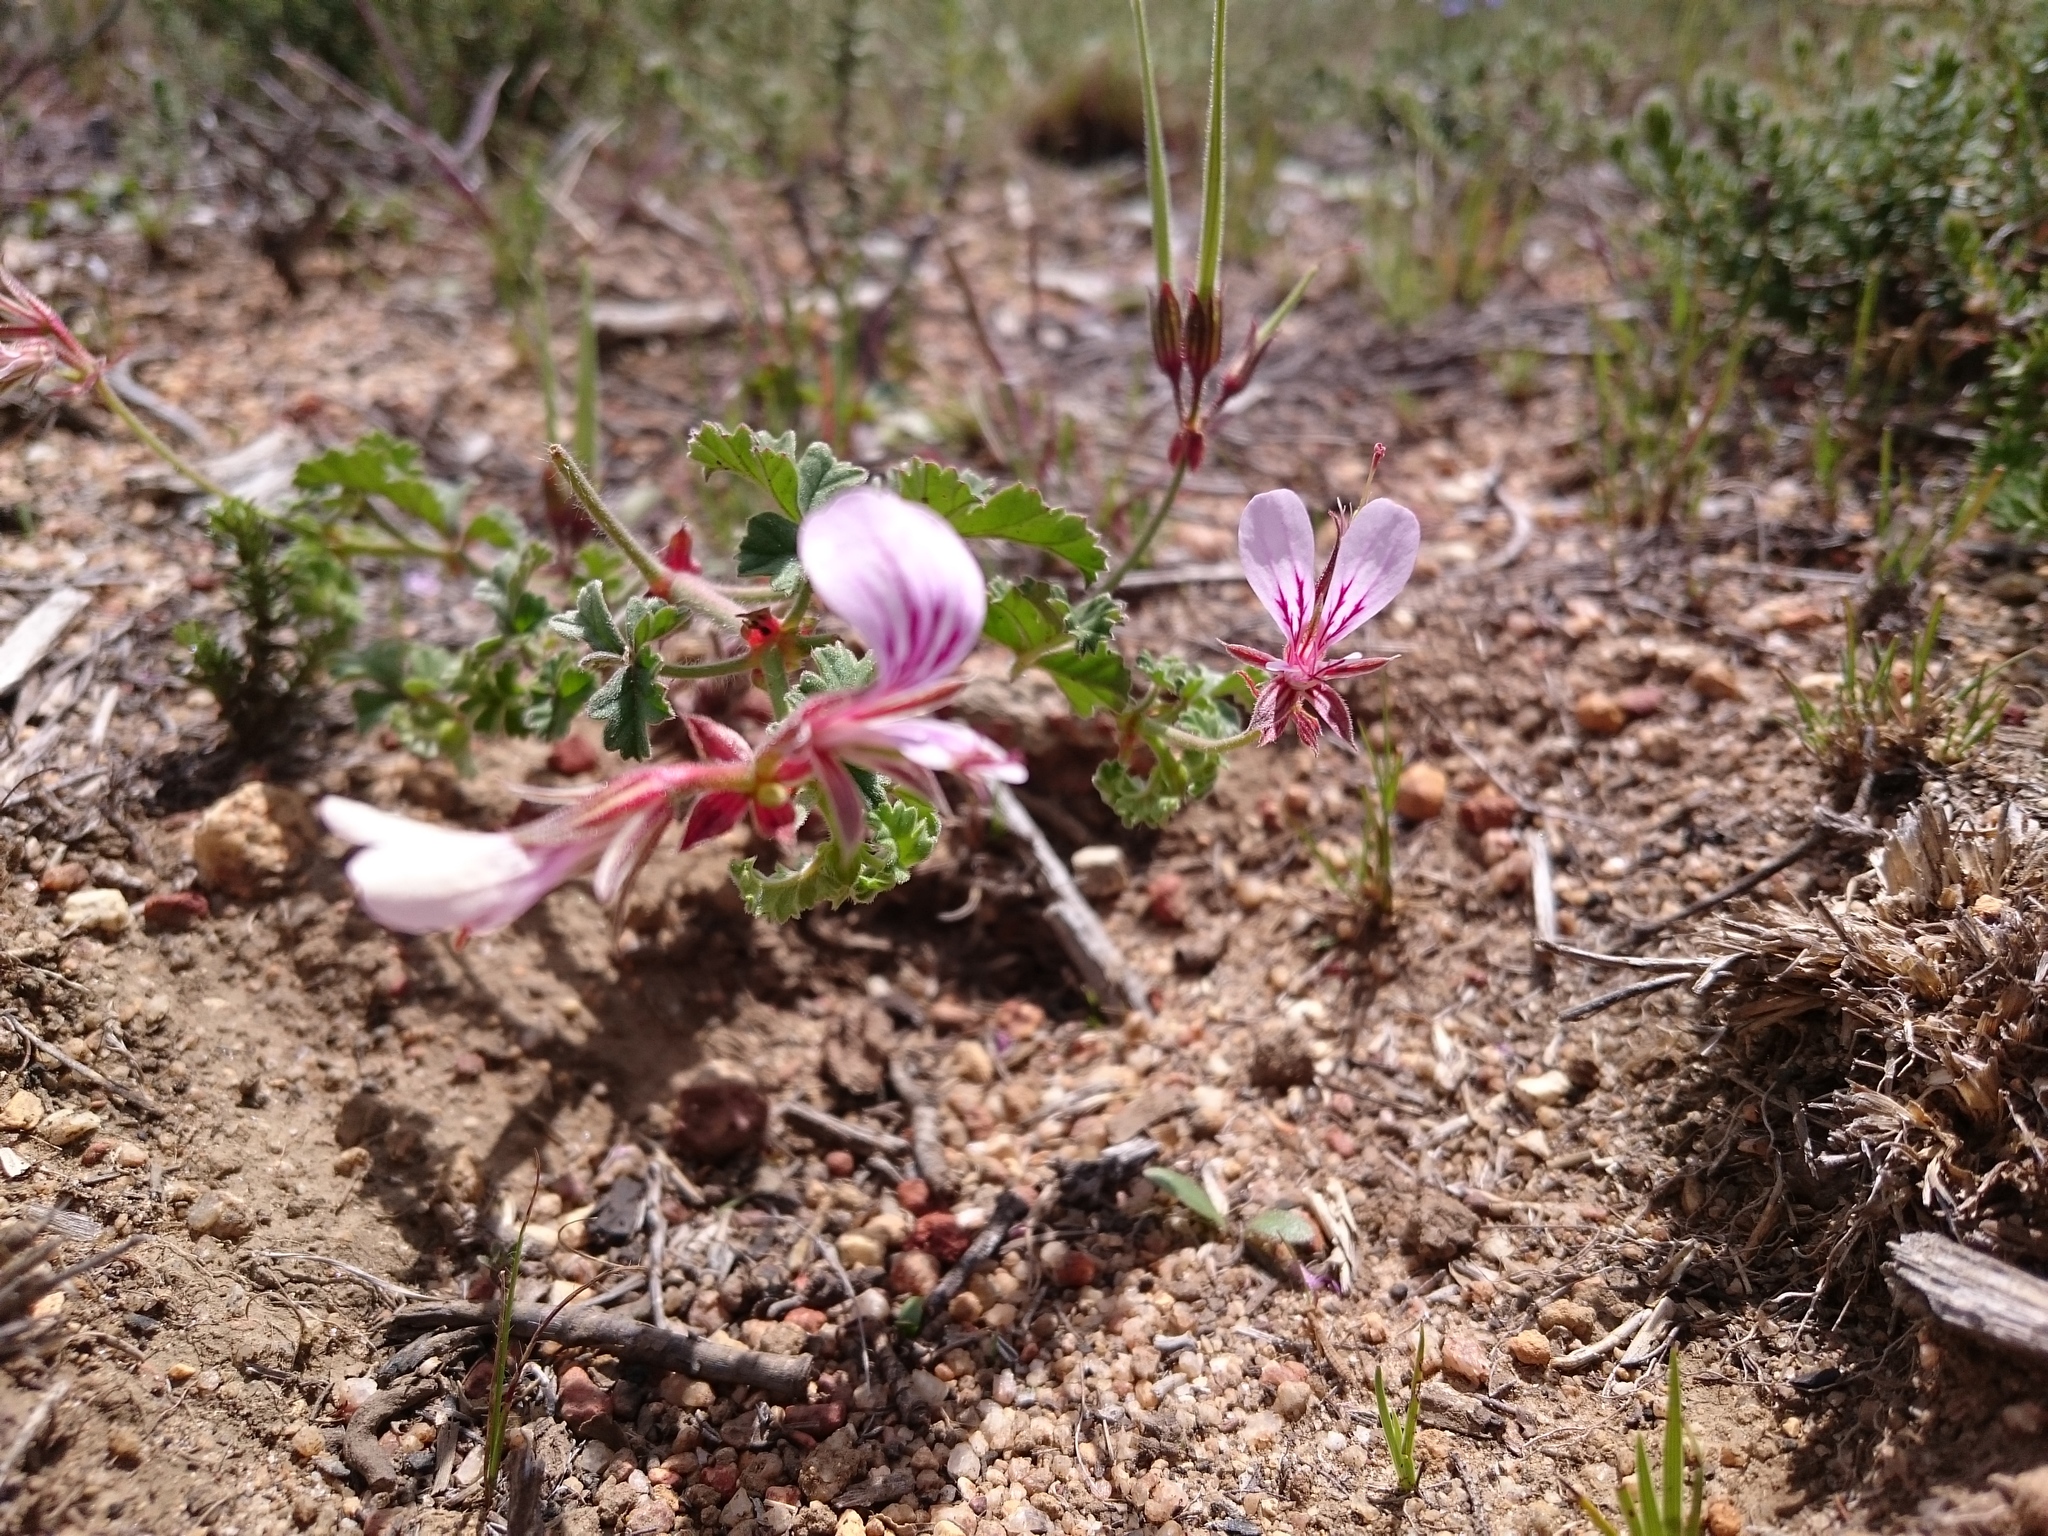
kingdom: Plantae
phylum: Tracheophyta
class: Magnoliopsida
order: Geraniales
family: Geraniaceae
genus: Pelargonium
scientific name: Pelargonium candicans
